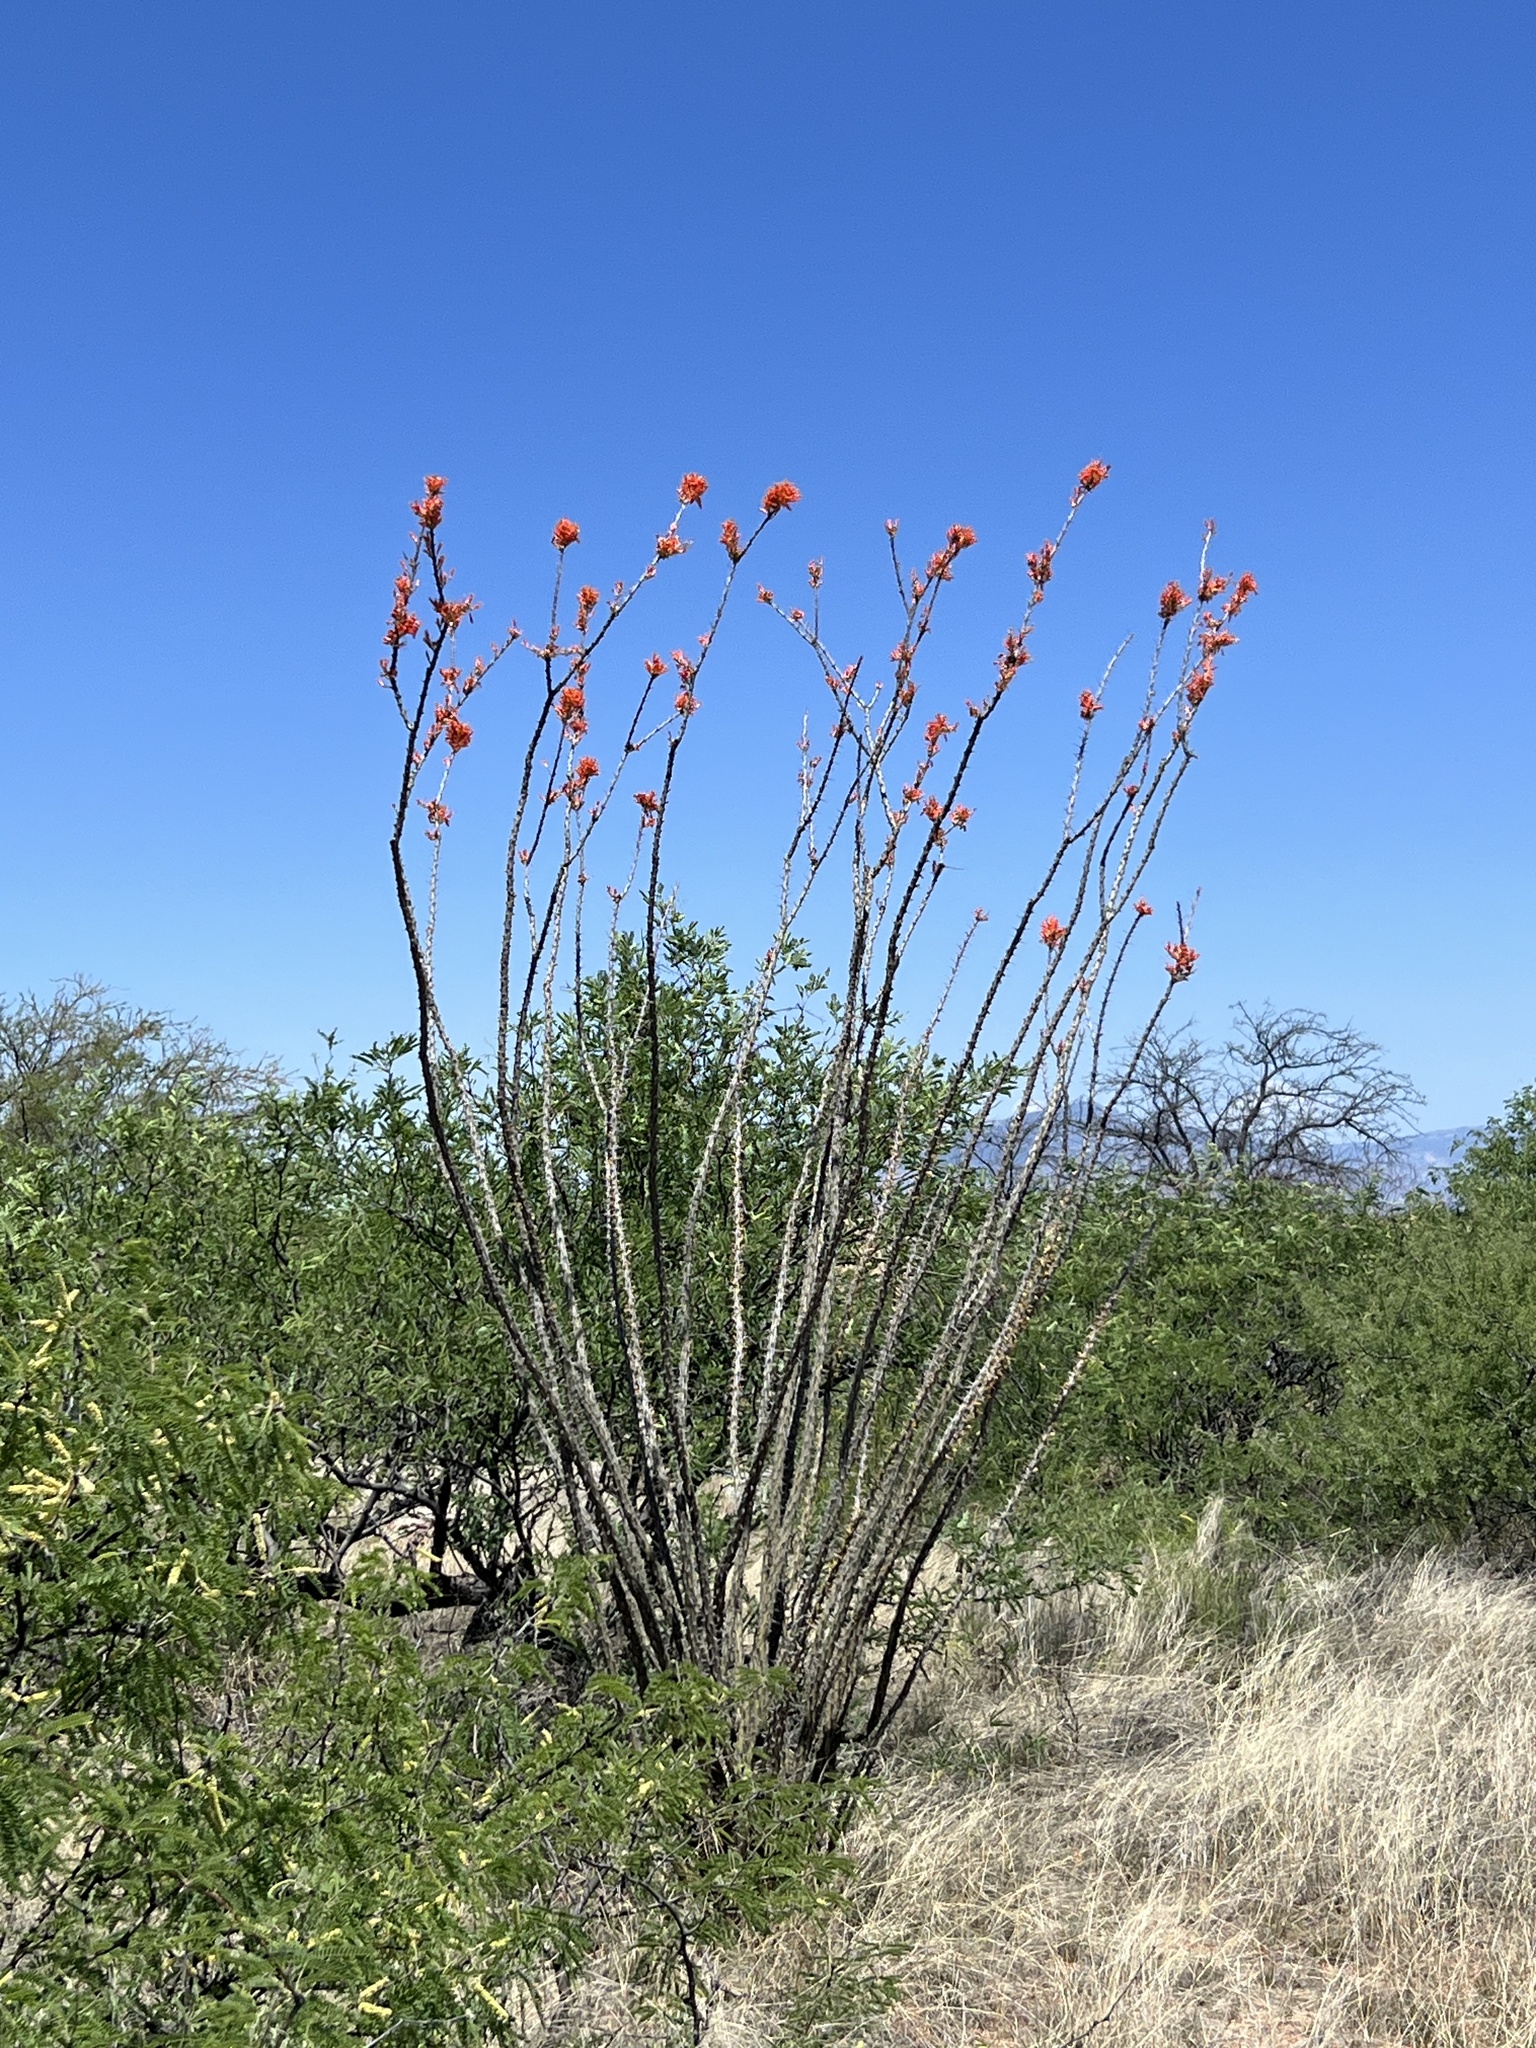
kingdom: Plantae
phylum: Tracheophyta
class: Magnoliopsida
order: Ericales
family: Fouquieriaceae
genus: Fouquieria
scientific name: Fouquieria splendens
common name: Vine-cactus
